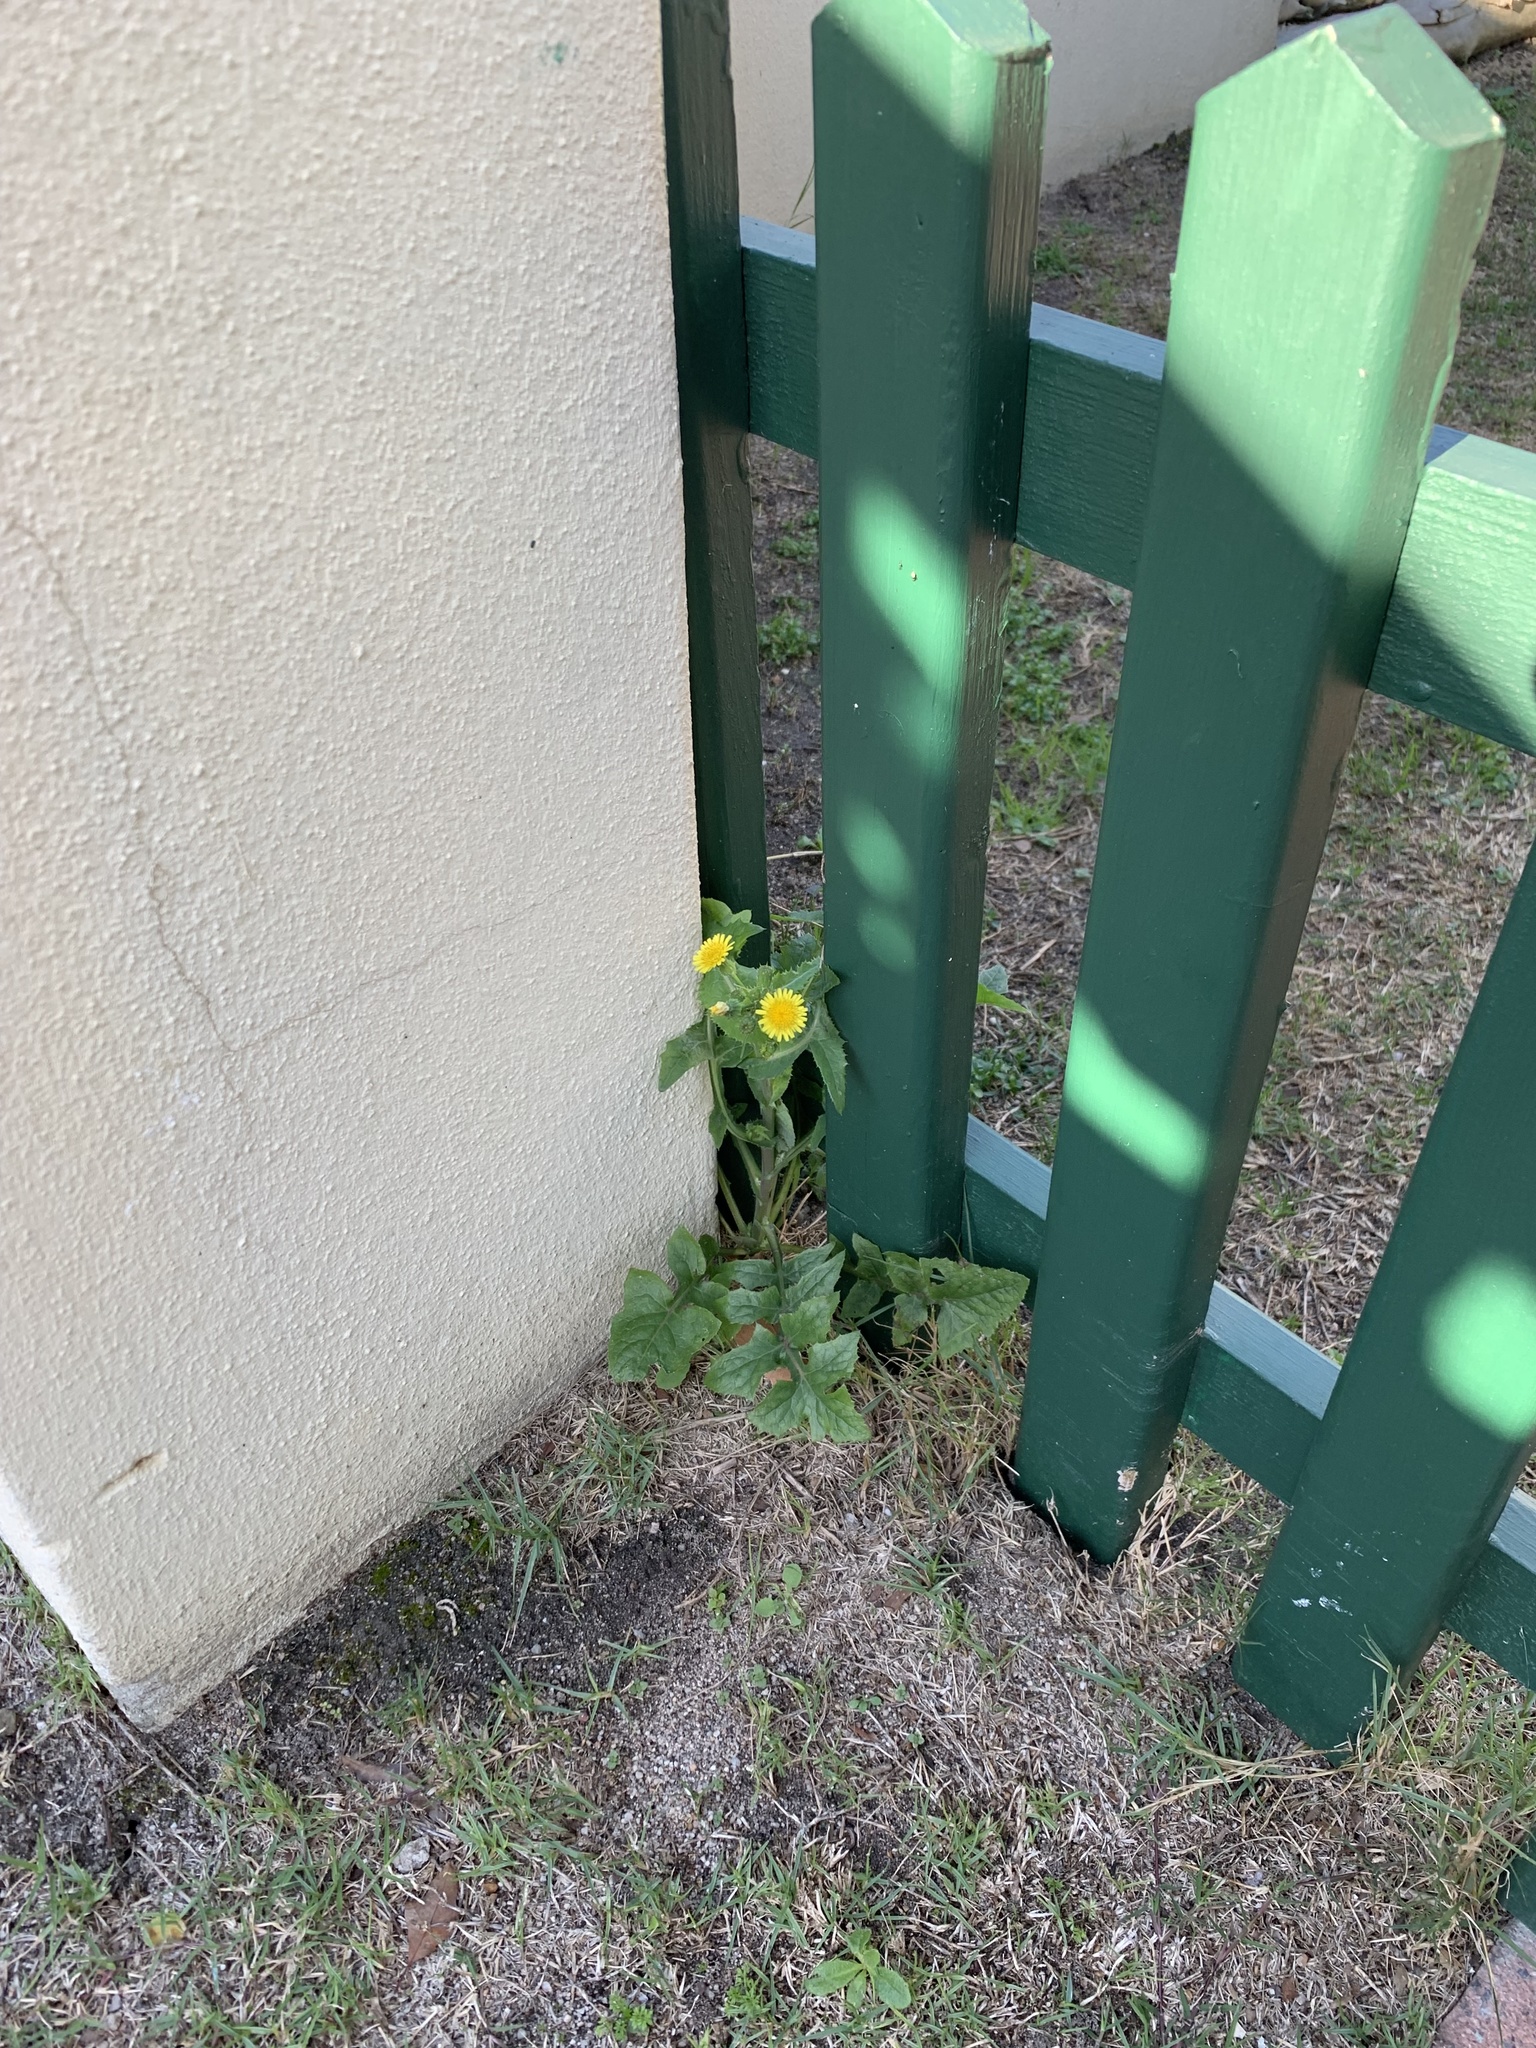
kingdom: Plantae
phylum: Tracheophyta
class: Magnoliopsida
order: Asterales
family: Asteraceae
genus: Sonchus
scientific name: Sonchus oleraceus
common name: Common sowthistle
